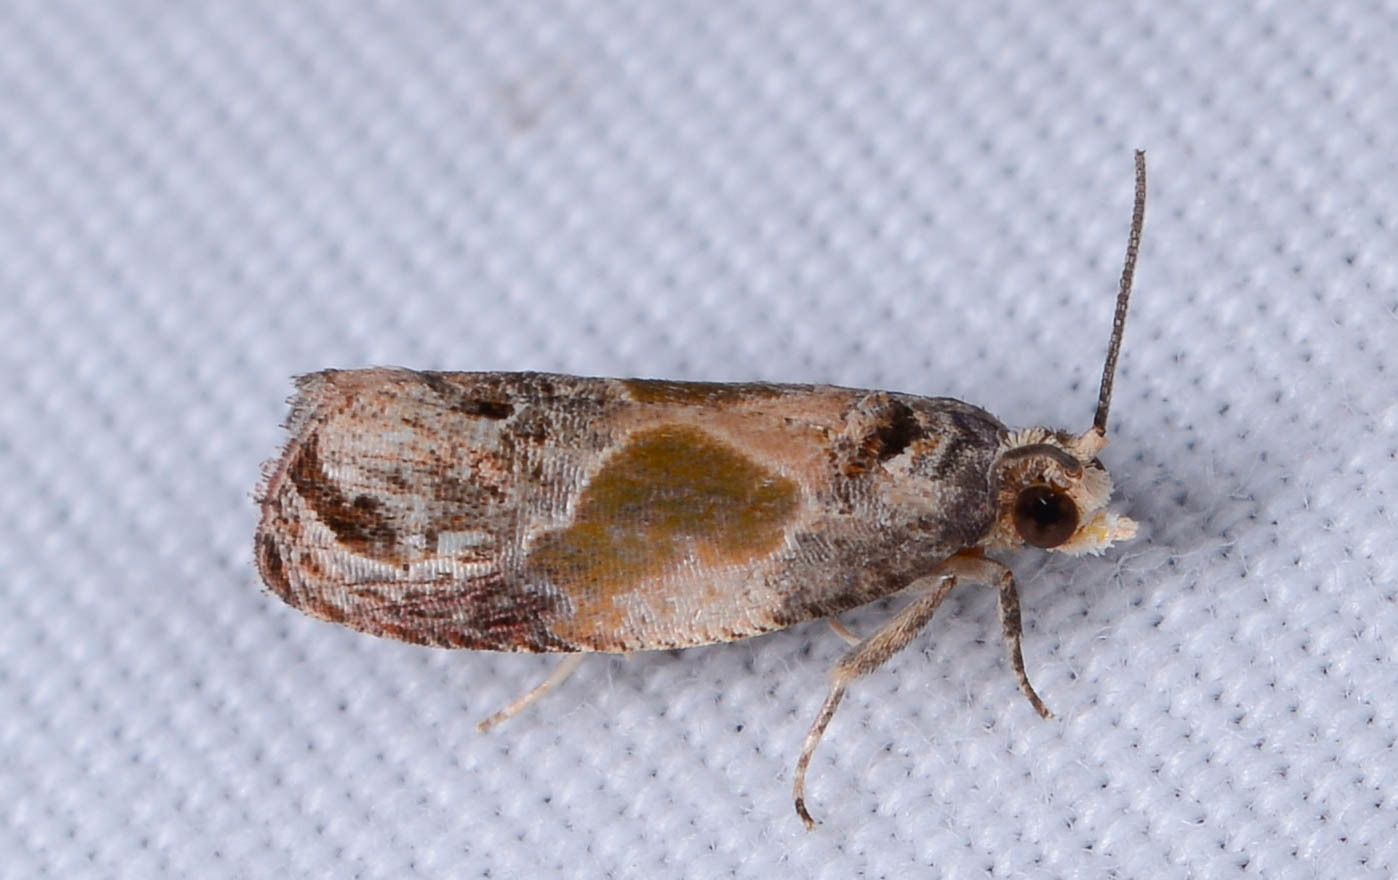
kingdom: Animalia
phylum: Arthropoda
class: Insecta
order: Lepidoptera
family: Tortricidae
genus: Eumarozia
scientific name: Eumarozia malachitana
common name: Sculptured moth
